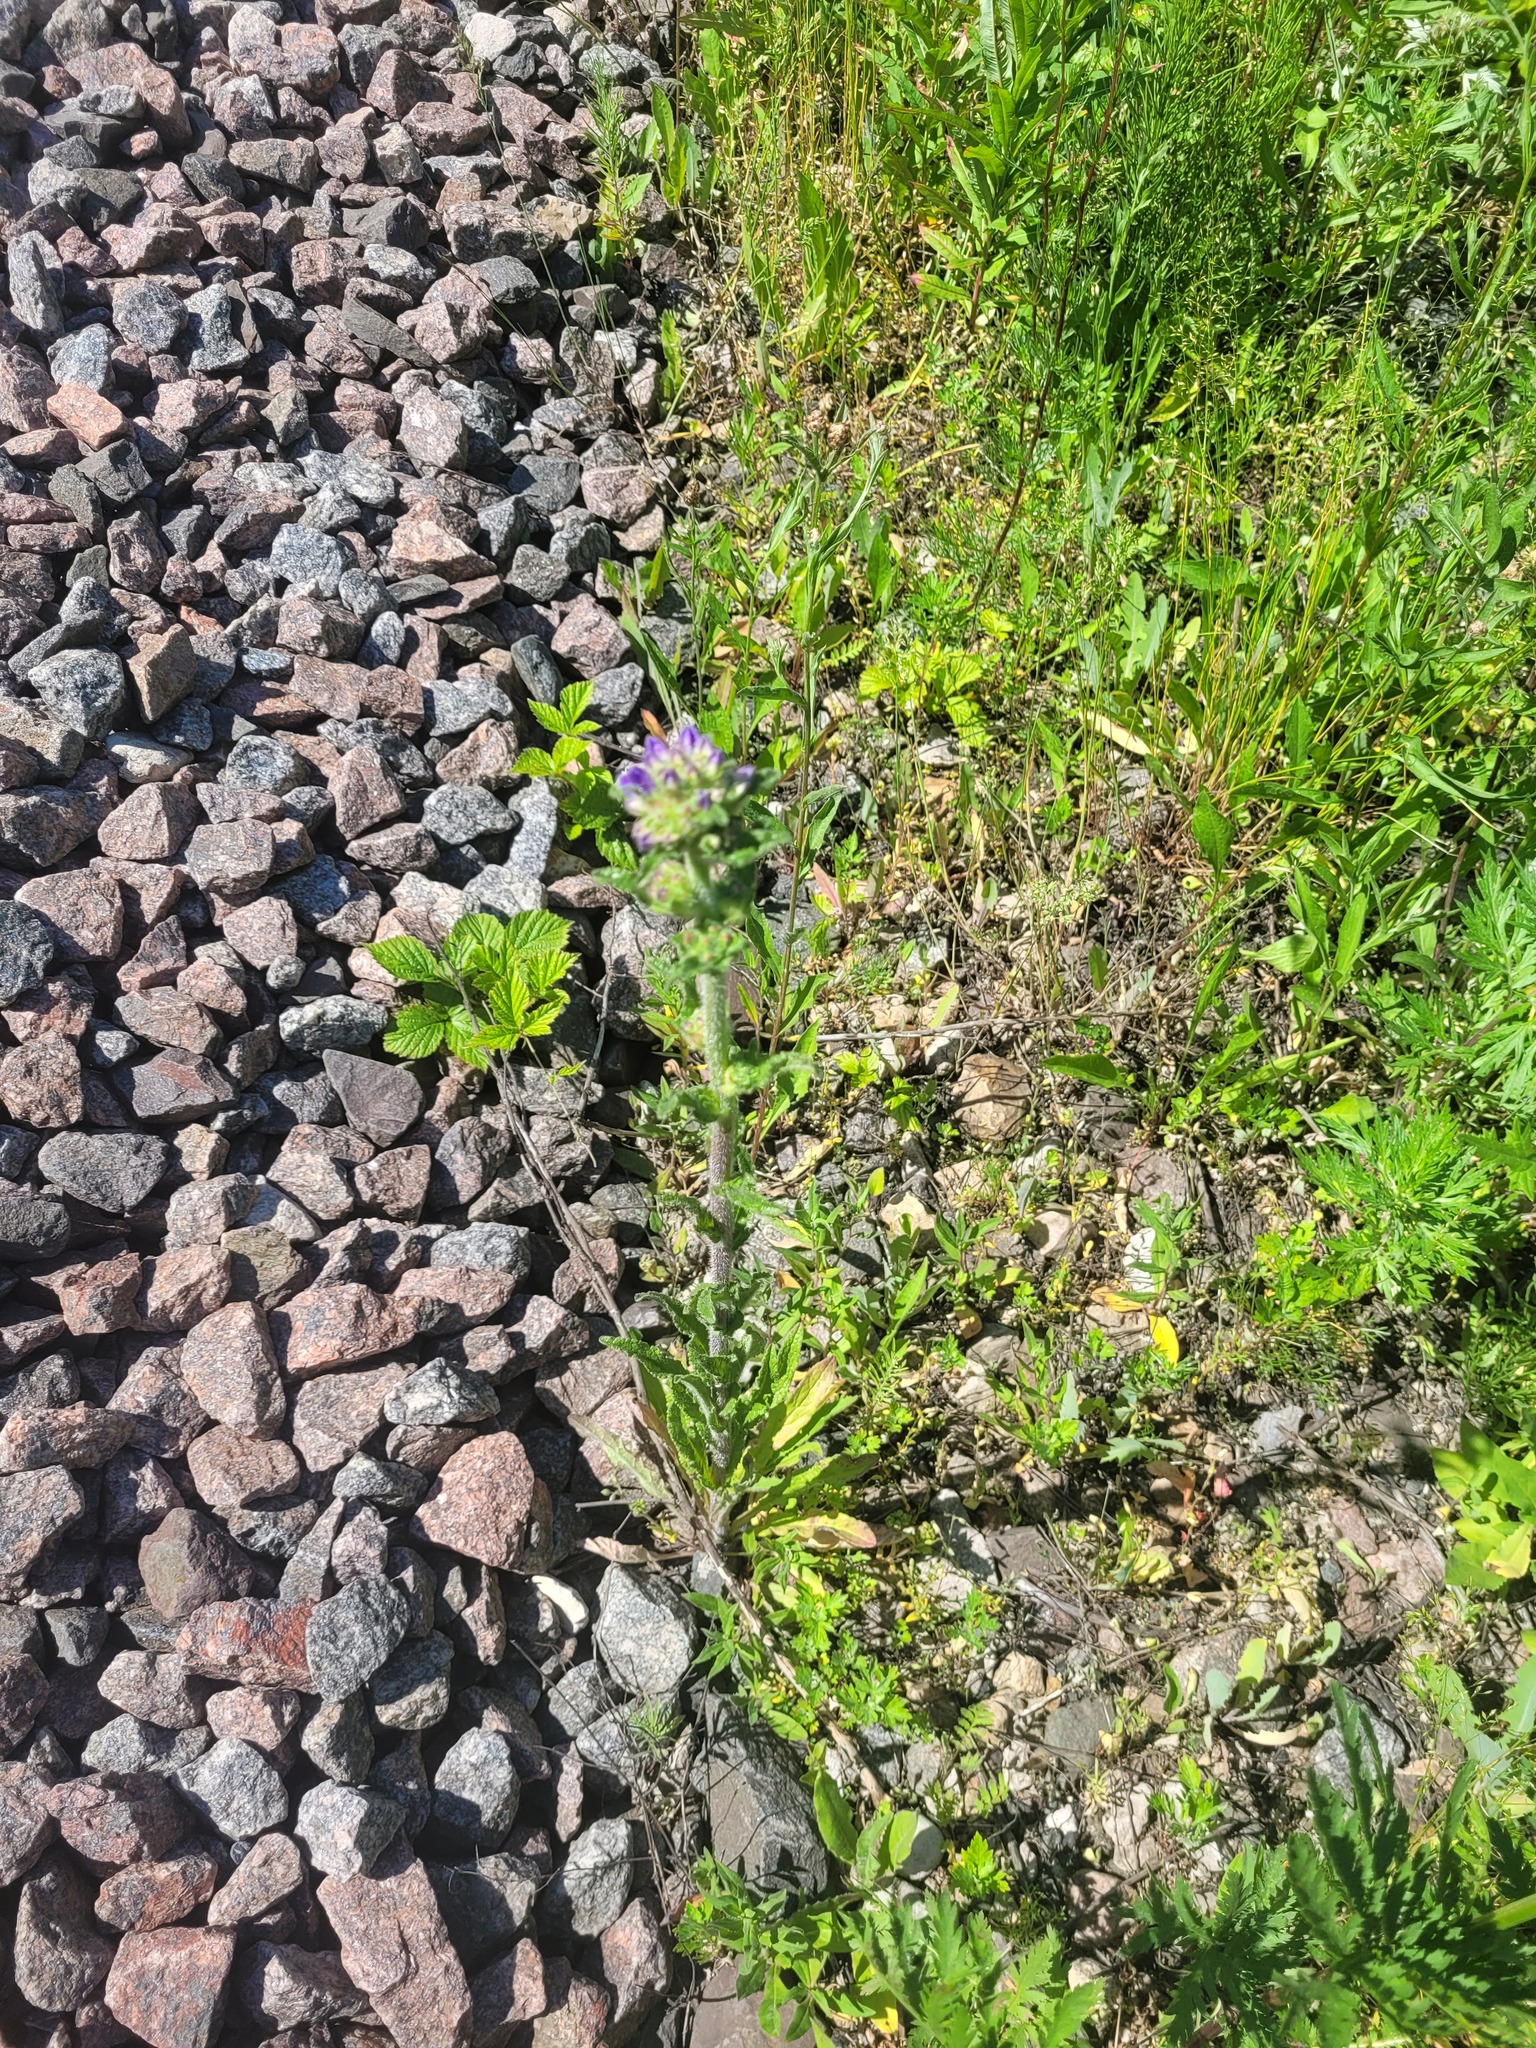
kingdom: Plantae
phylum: Tracheophyta
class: Magnoliopsida
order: Asterales
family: Campanulaceae
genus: Campanula
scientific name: Campanula cervicaria
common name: Bristly bellflower
